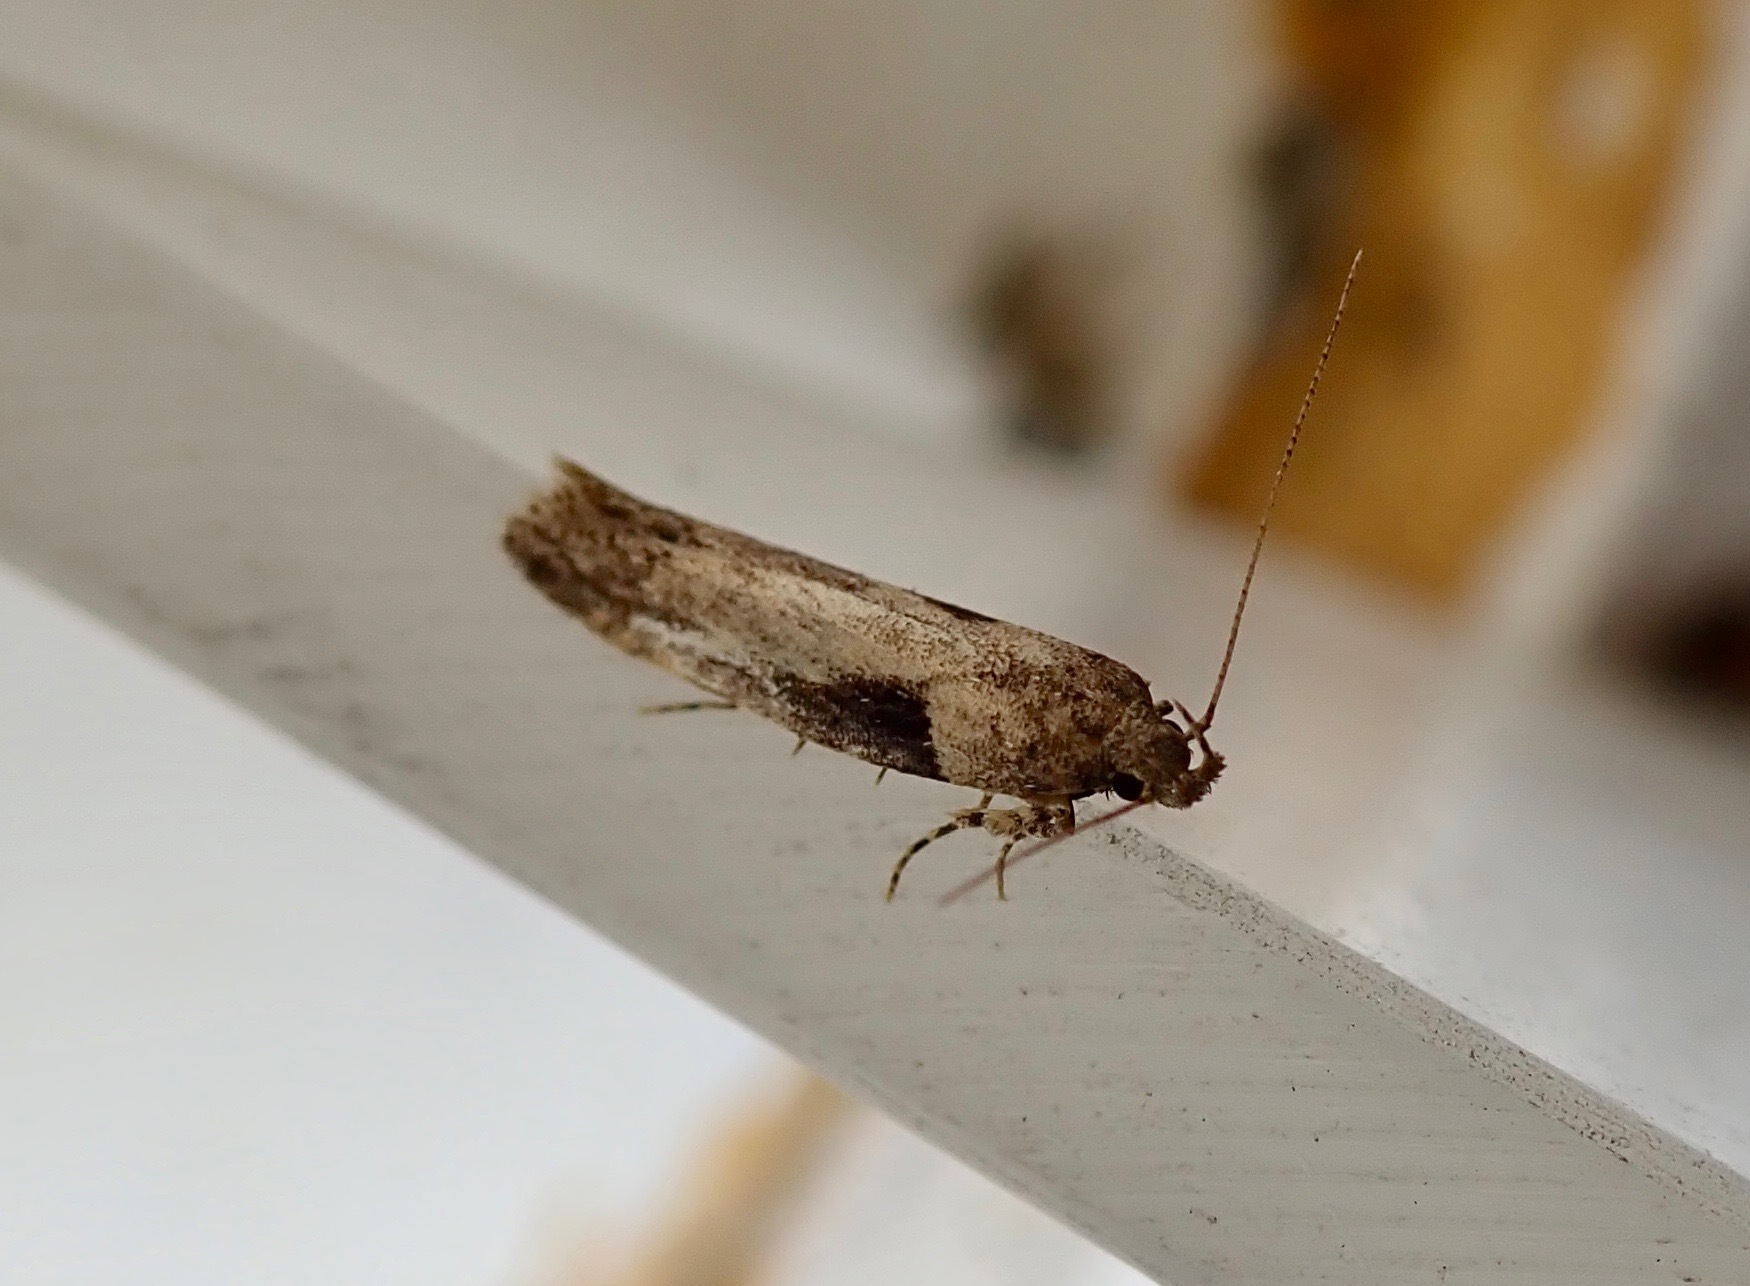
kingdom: Animalia
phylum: Arthropoda
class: Insecta
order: Lepidoptera
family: Gelechiidae
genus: Symmetrischema
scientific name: Symmetrischema tangolias
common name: Moth
